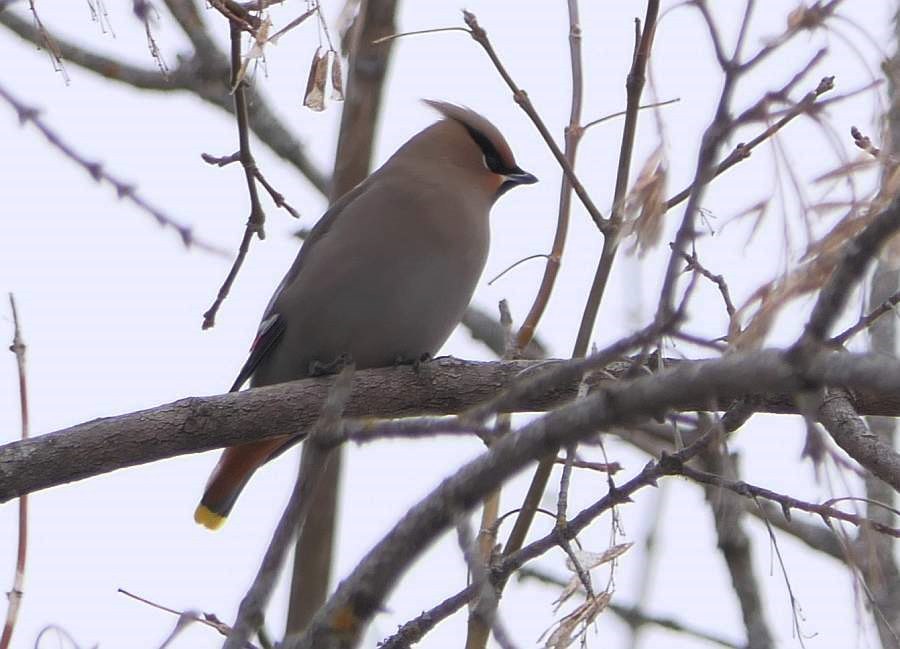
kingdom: Animalia
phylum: Chordata
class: Aves
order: Passeriformes
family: Bombycillidae
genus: Bombycilla
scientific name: Bombycilla garrulus
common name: Bohemian waxwing
